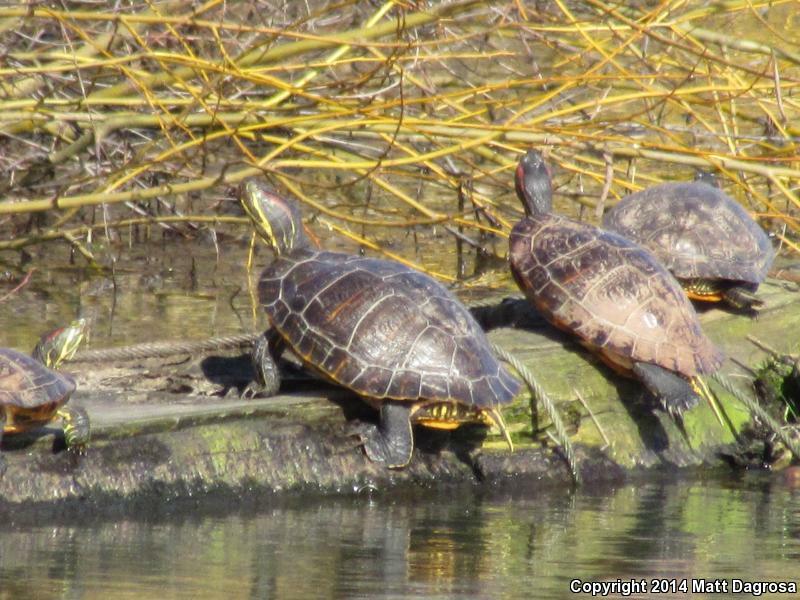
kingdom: Animalia
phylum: Chordata
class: Testudines
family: Emydidae
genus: Trachemys
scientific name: Trachemys scripta
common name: Slider
